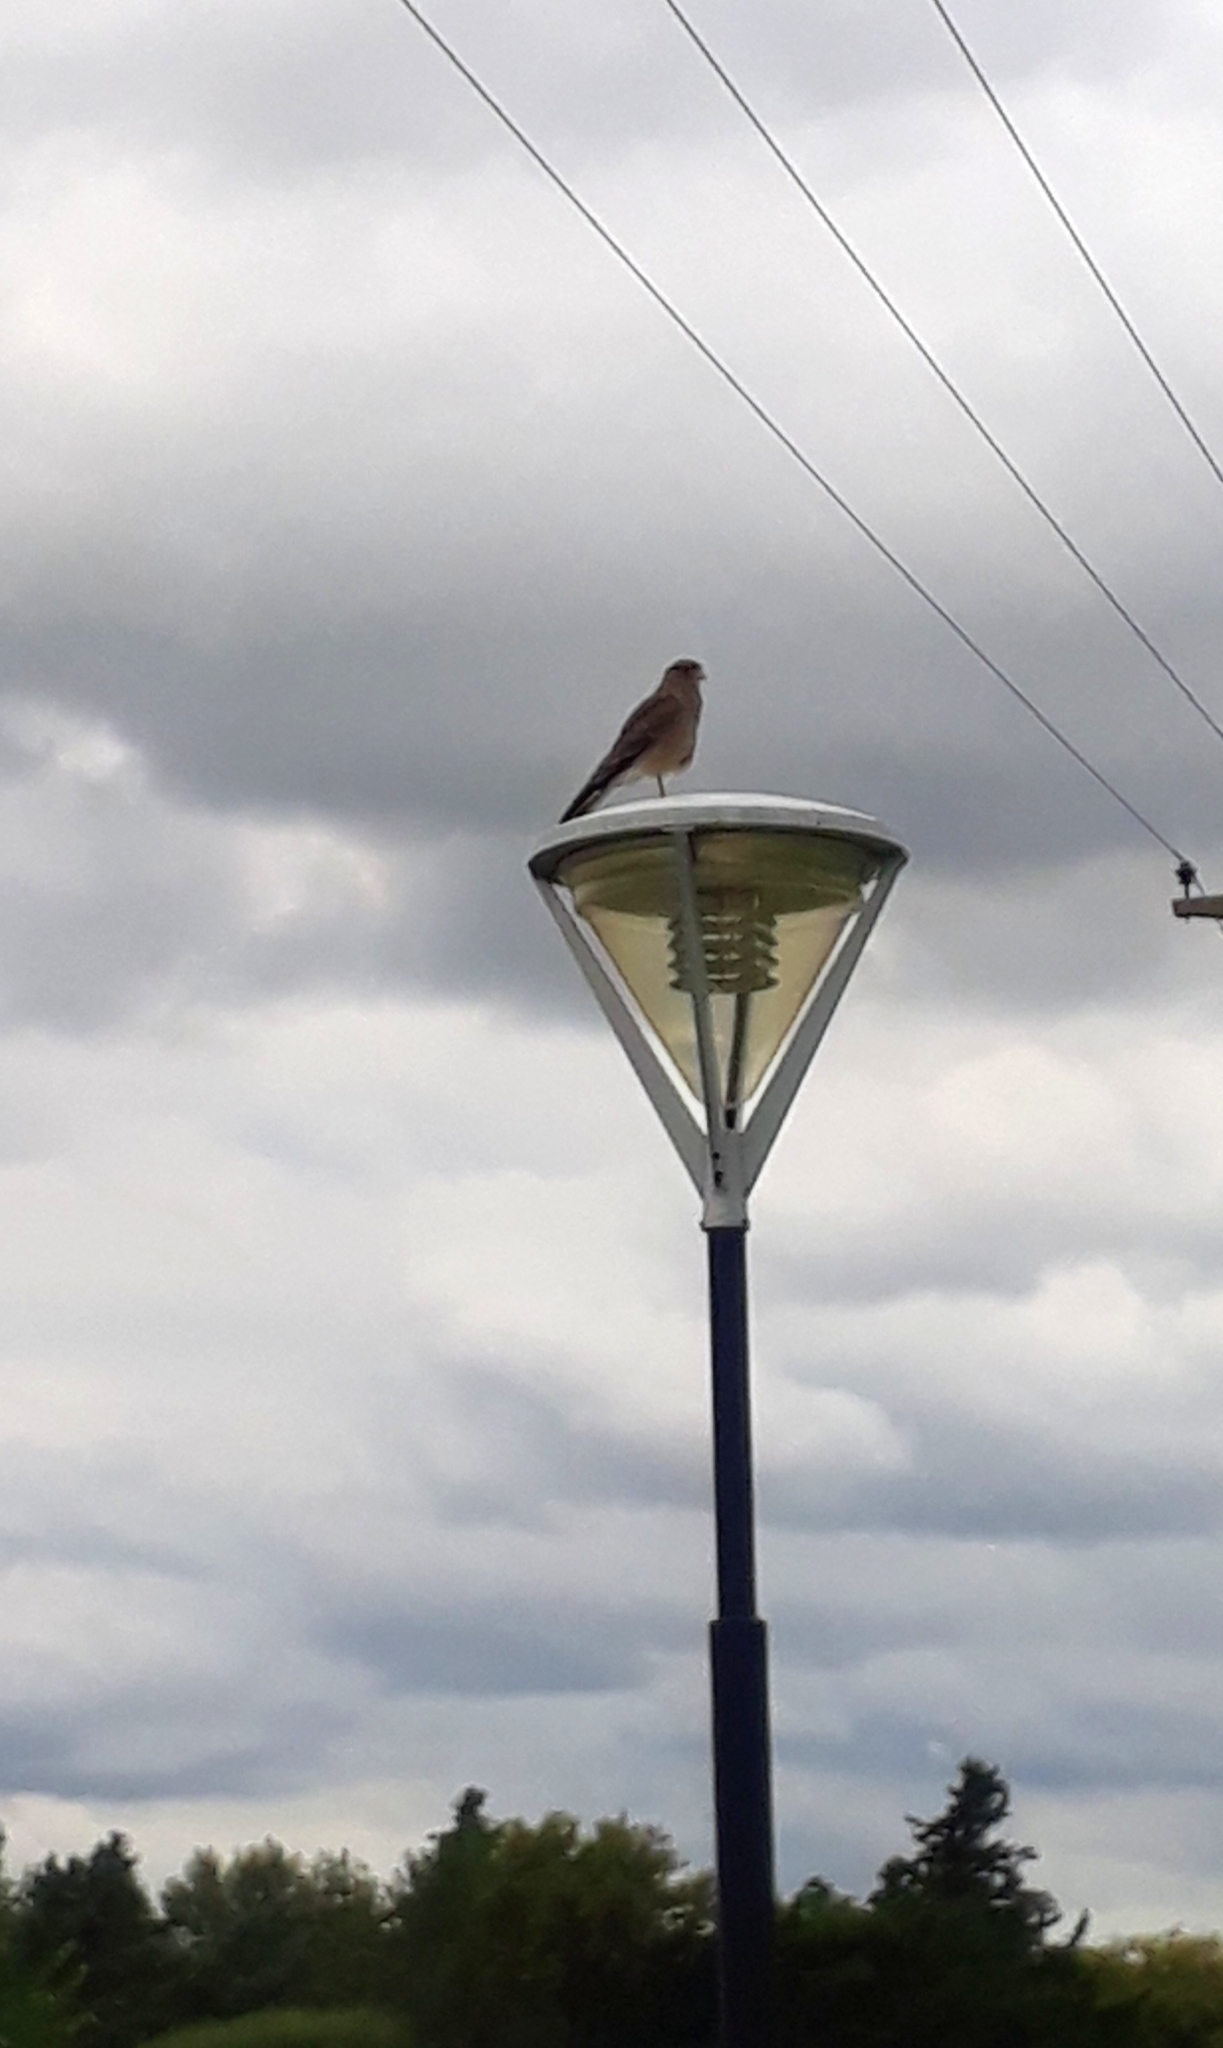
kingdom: Animalia
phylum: Chordata
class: Aves
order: Falconiformes
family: Falconidae
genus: Daptrius
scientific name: Daptrius
